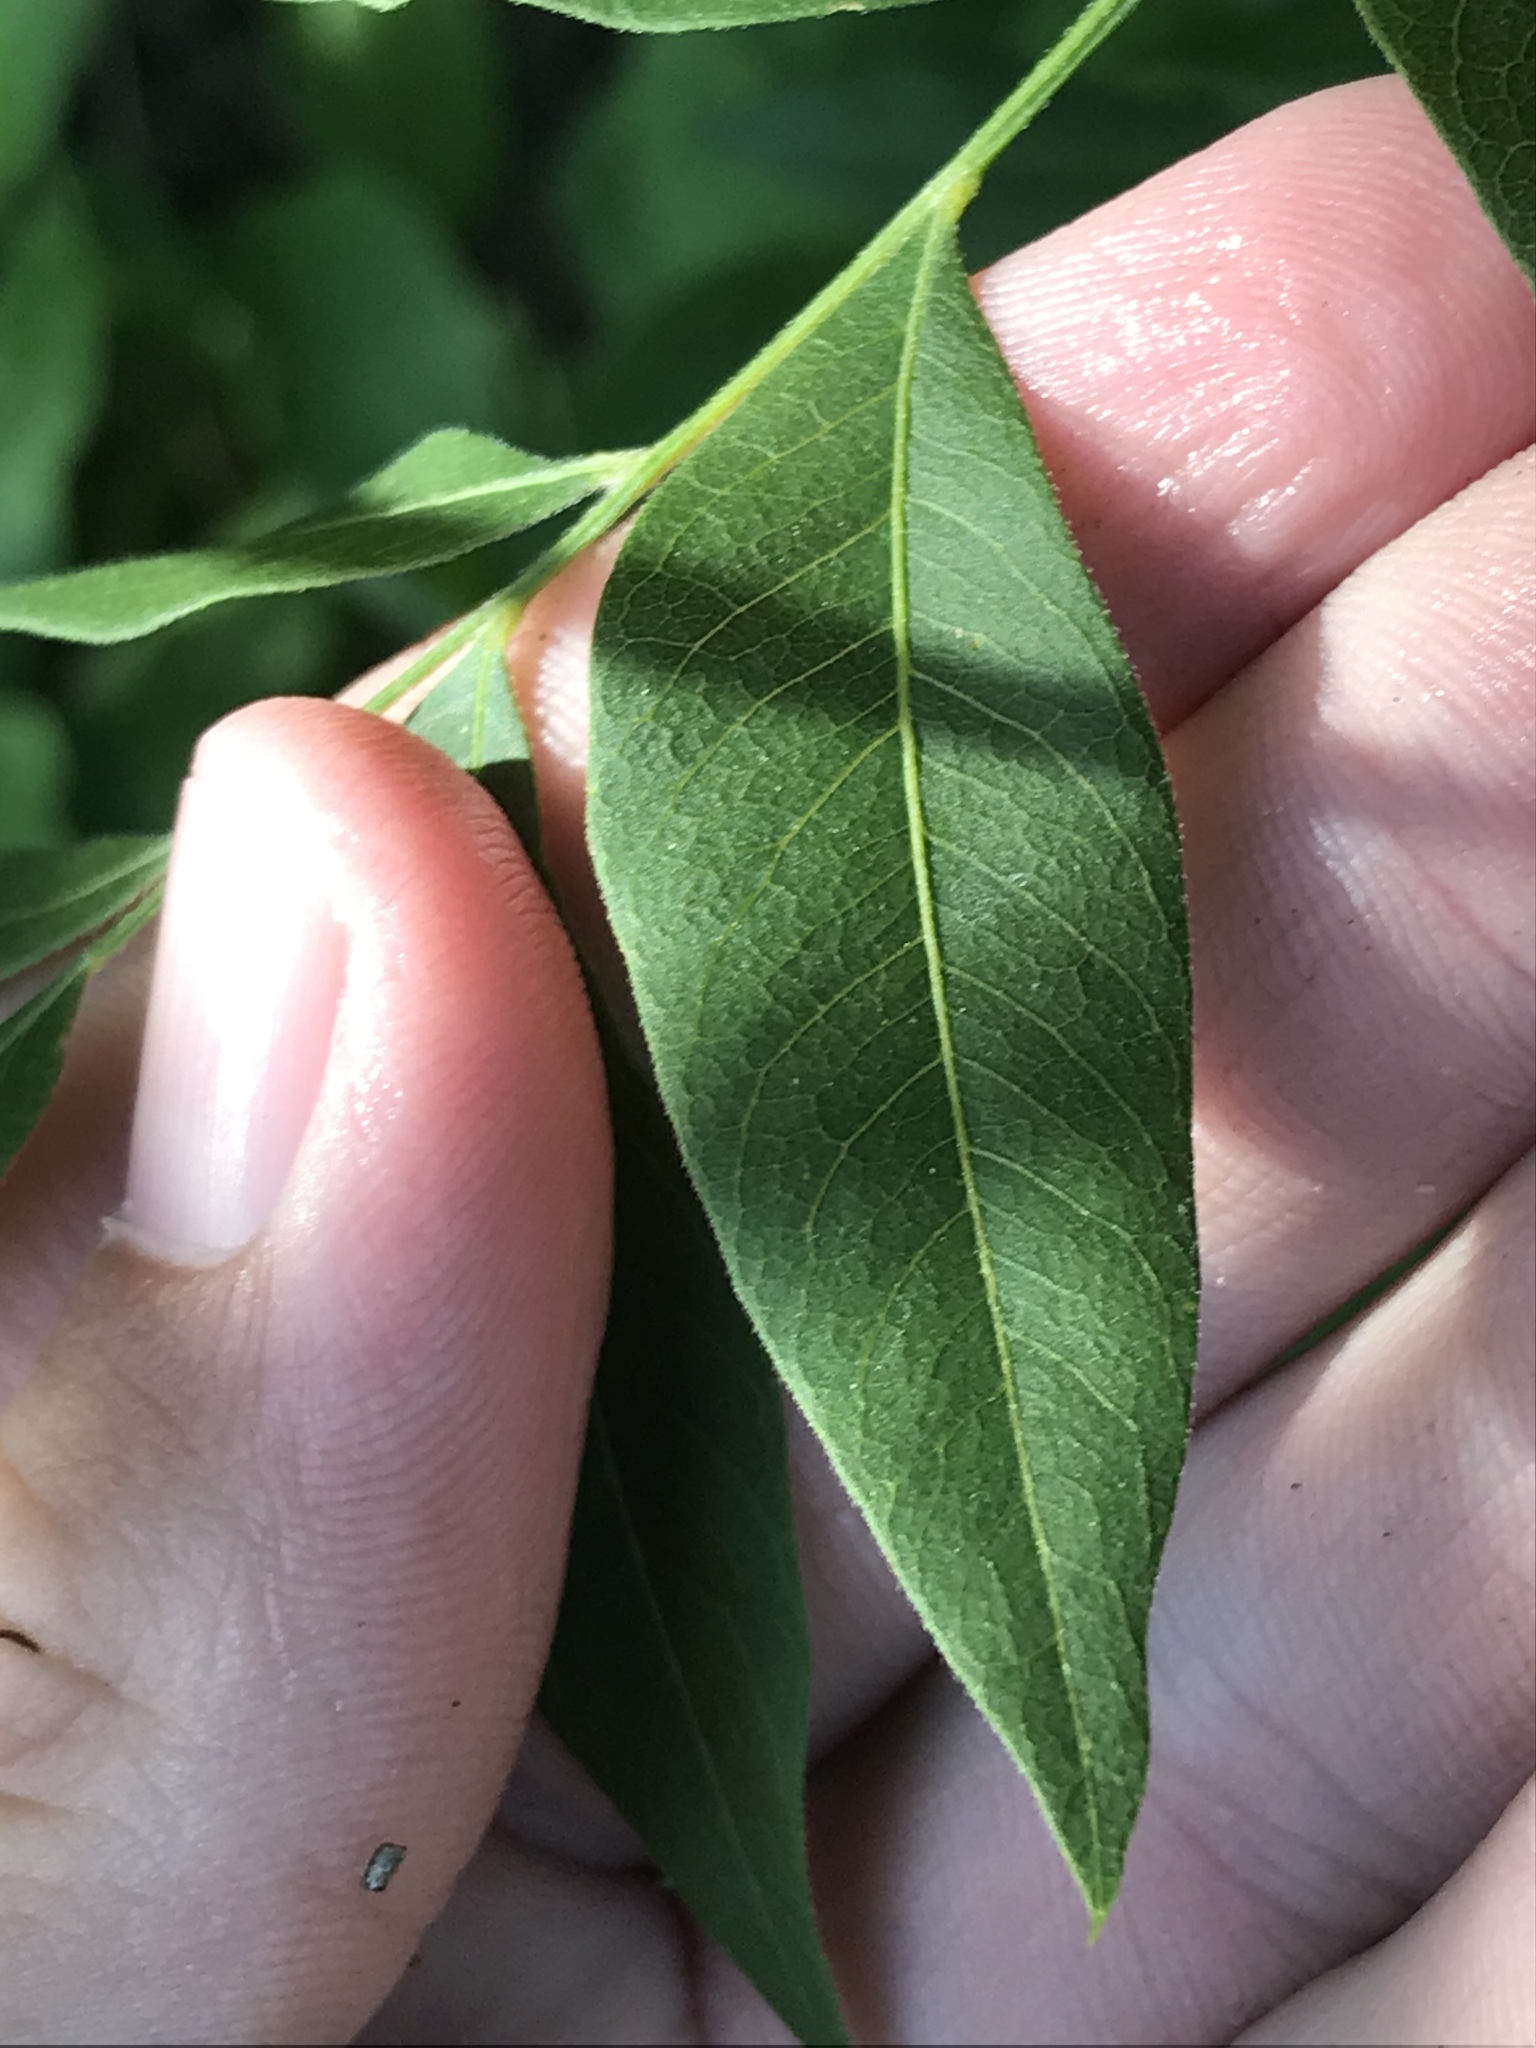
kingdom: Plantae
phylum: Tracheophyta
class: Magnoliopsida
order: Sapindales
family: Sapindaceae
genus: Sapindus
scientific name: Sapindus drummondii
